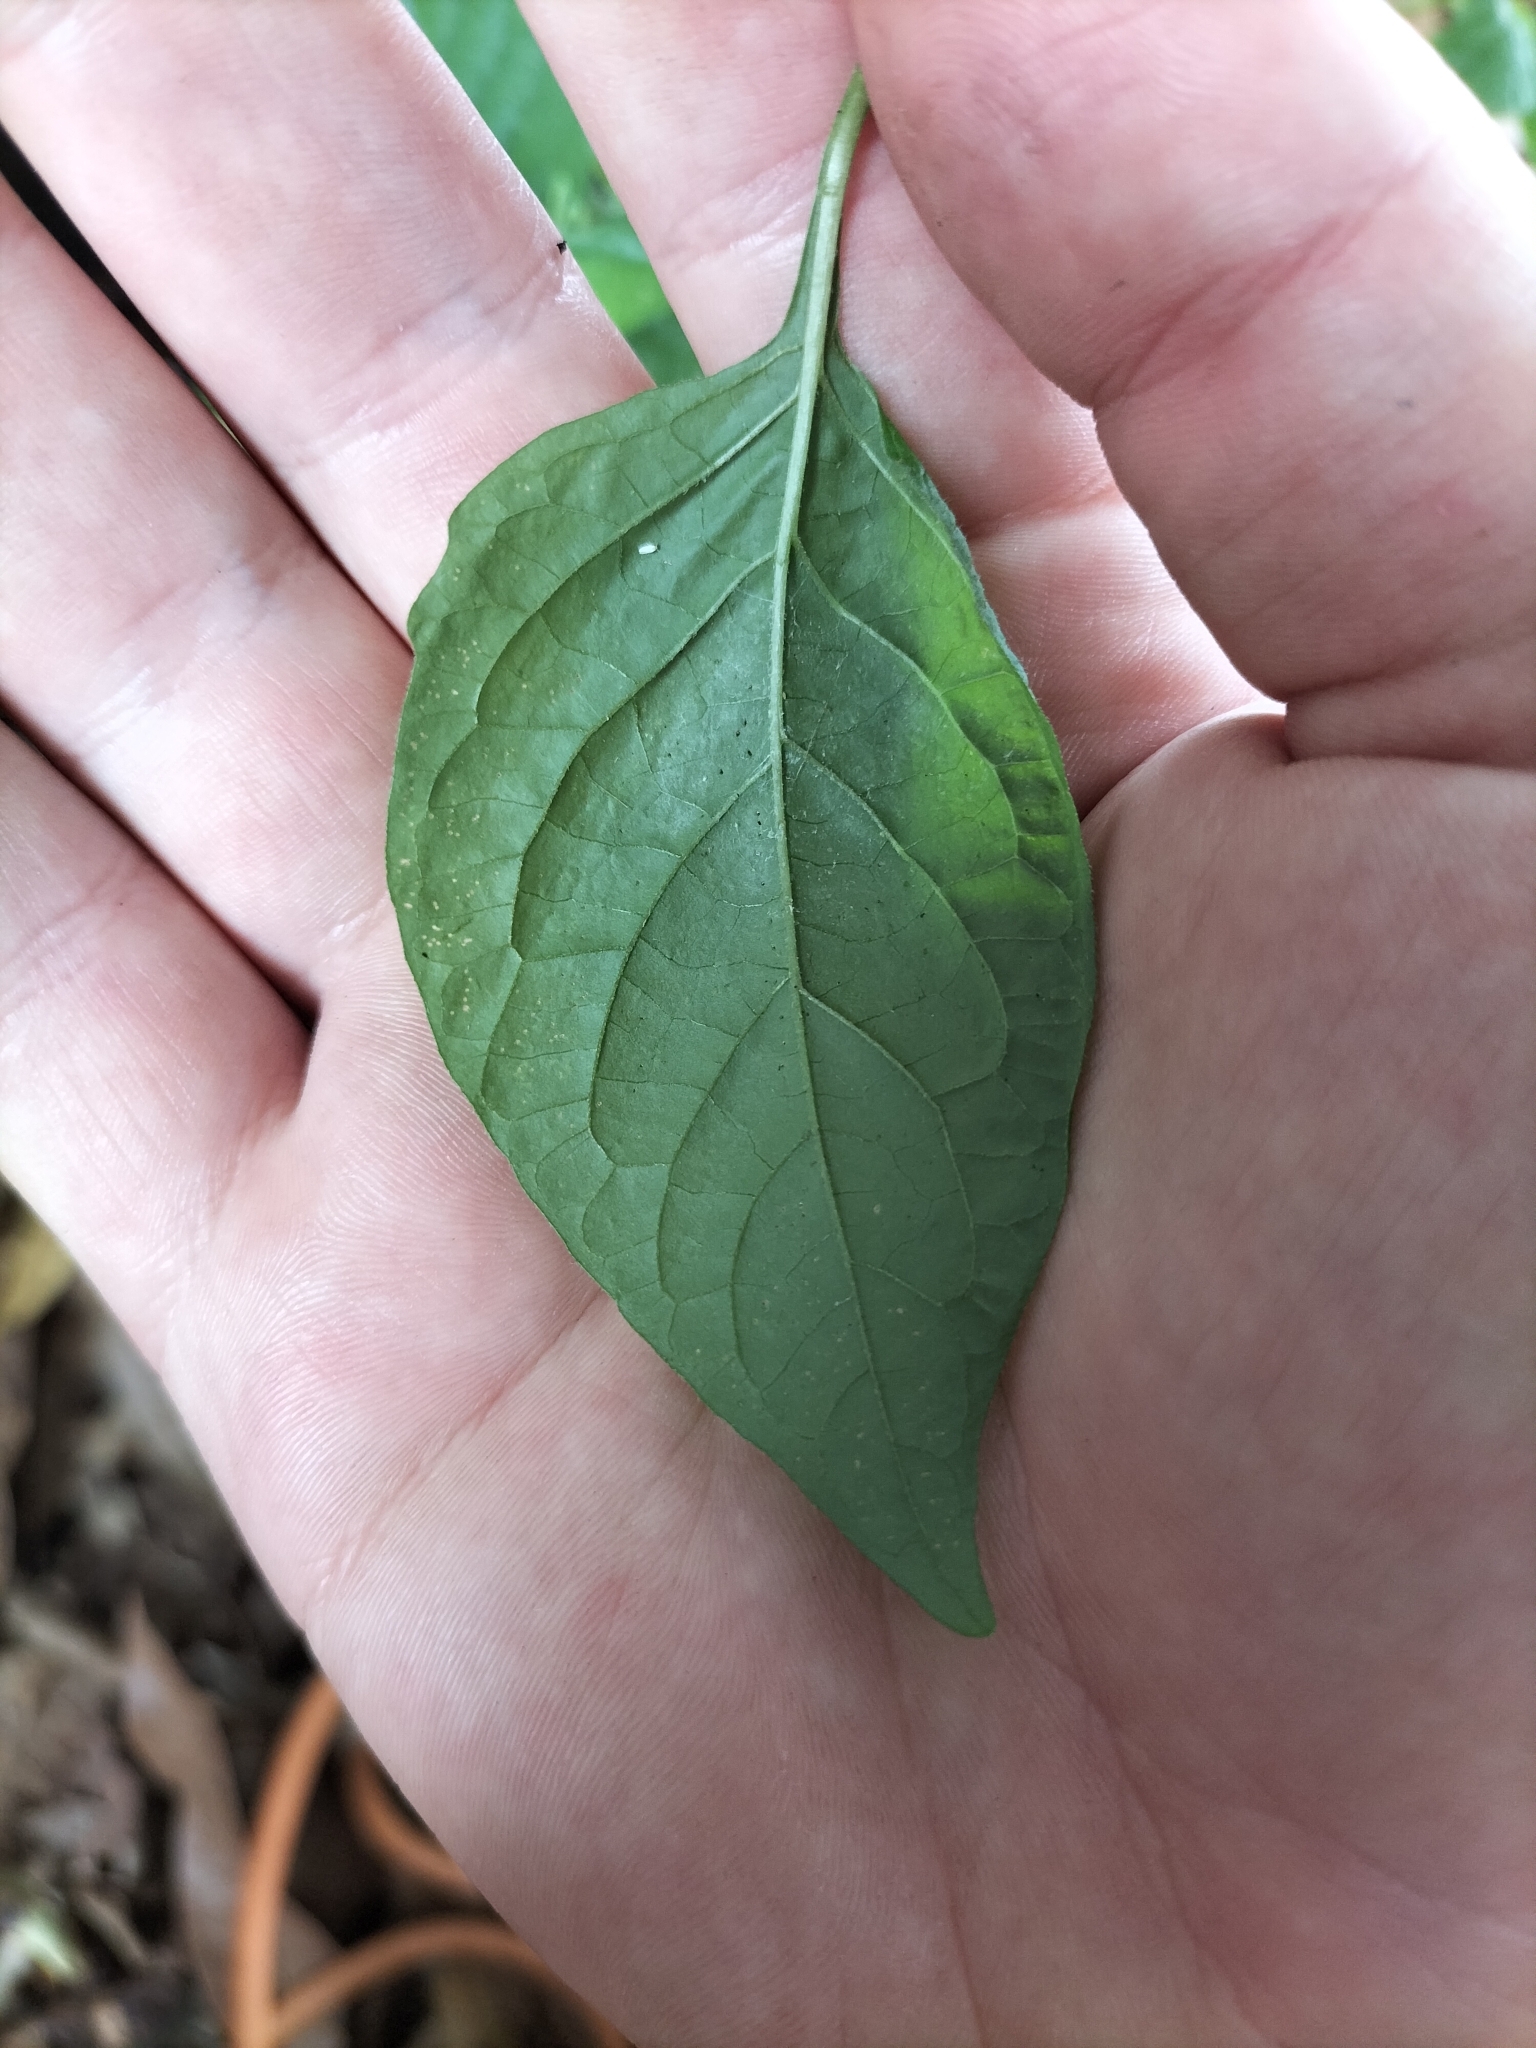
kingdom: Plantae
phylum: Tracheophyta
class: Magnoliopsida
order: Solanales
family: Solanaceae
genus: Solanum
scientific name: Solanum americanum
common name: American black nightshade
